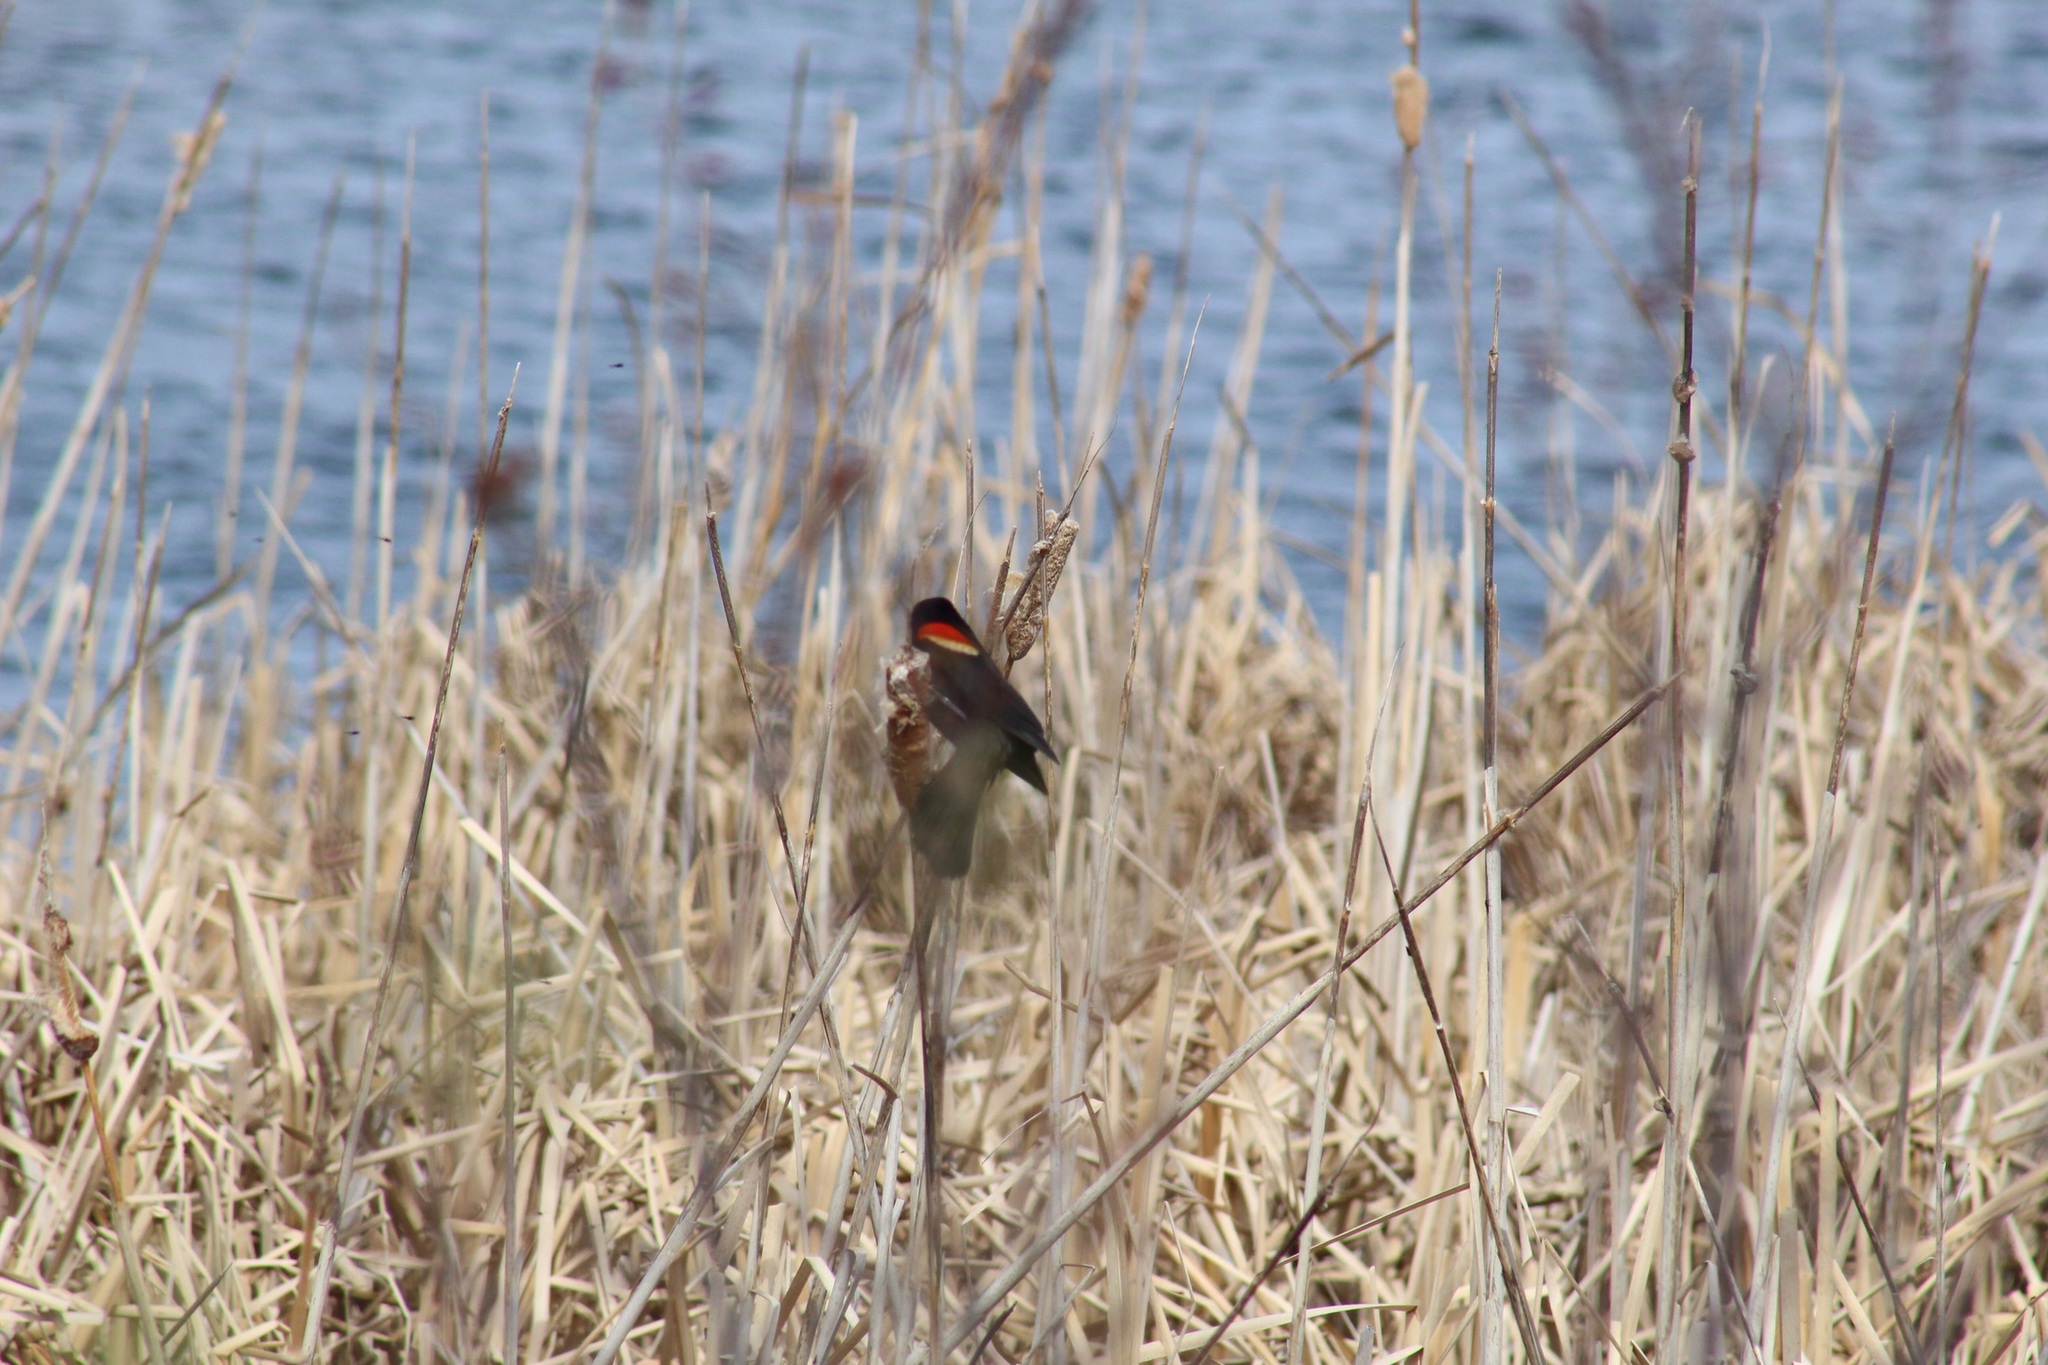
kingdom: Animalia
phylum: Chordata
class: Aves
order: Passeriformes
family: Icteridae
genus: Agelaius
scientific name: Agelaius phoeniceus
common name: Red-winged blackbird
